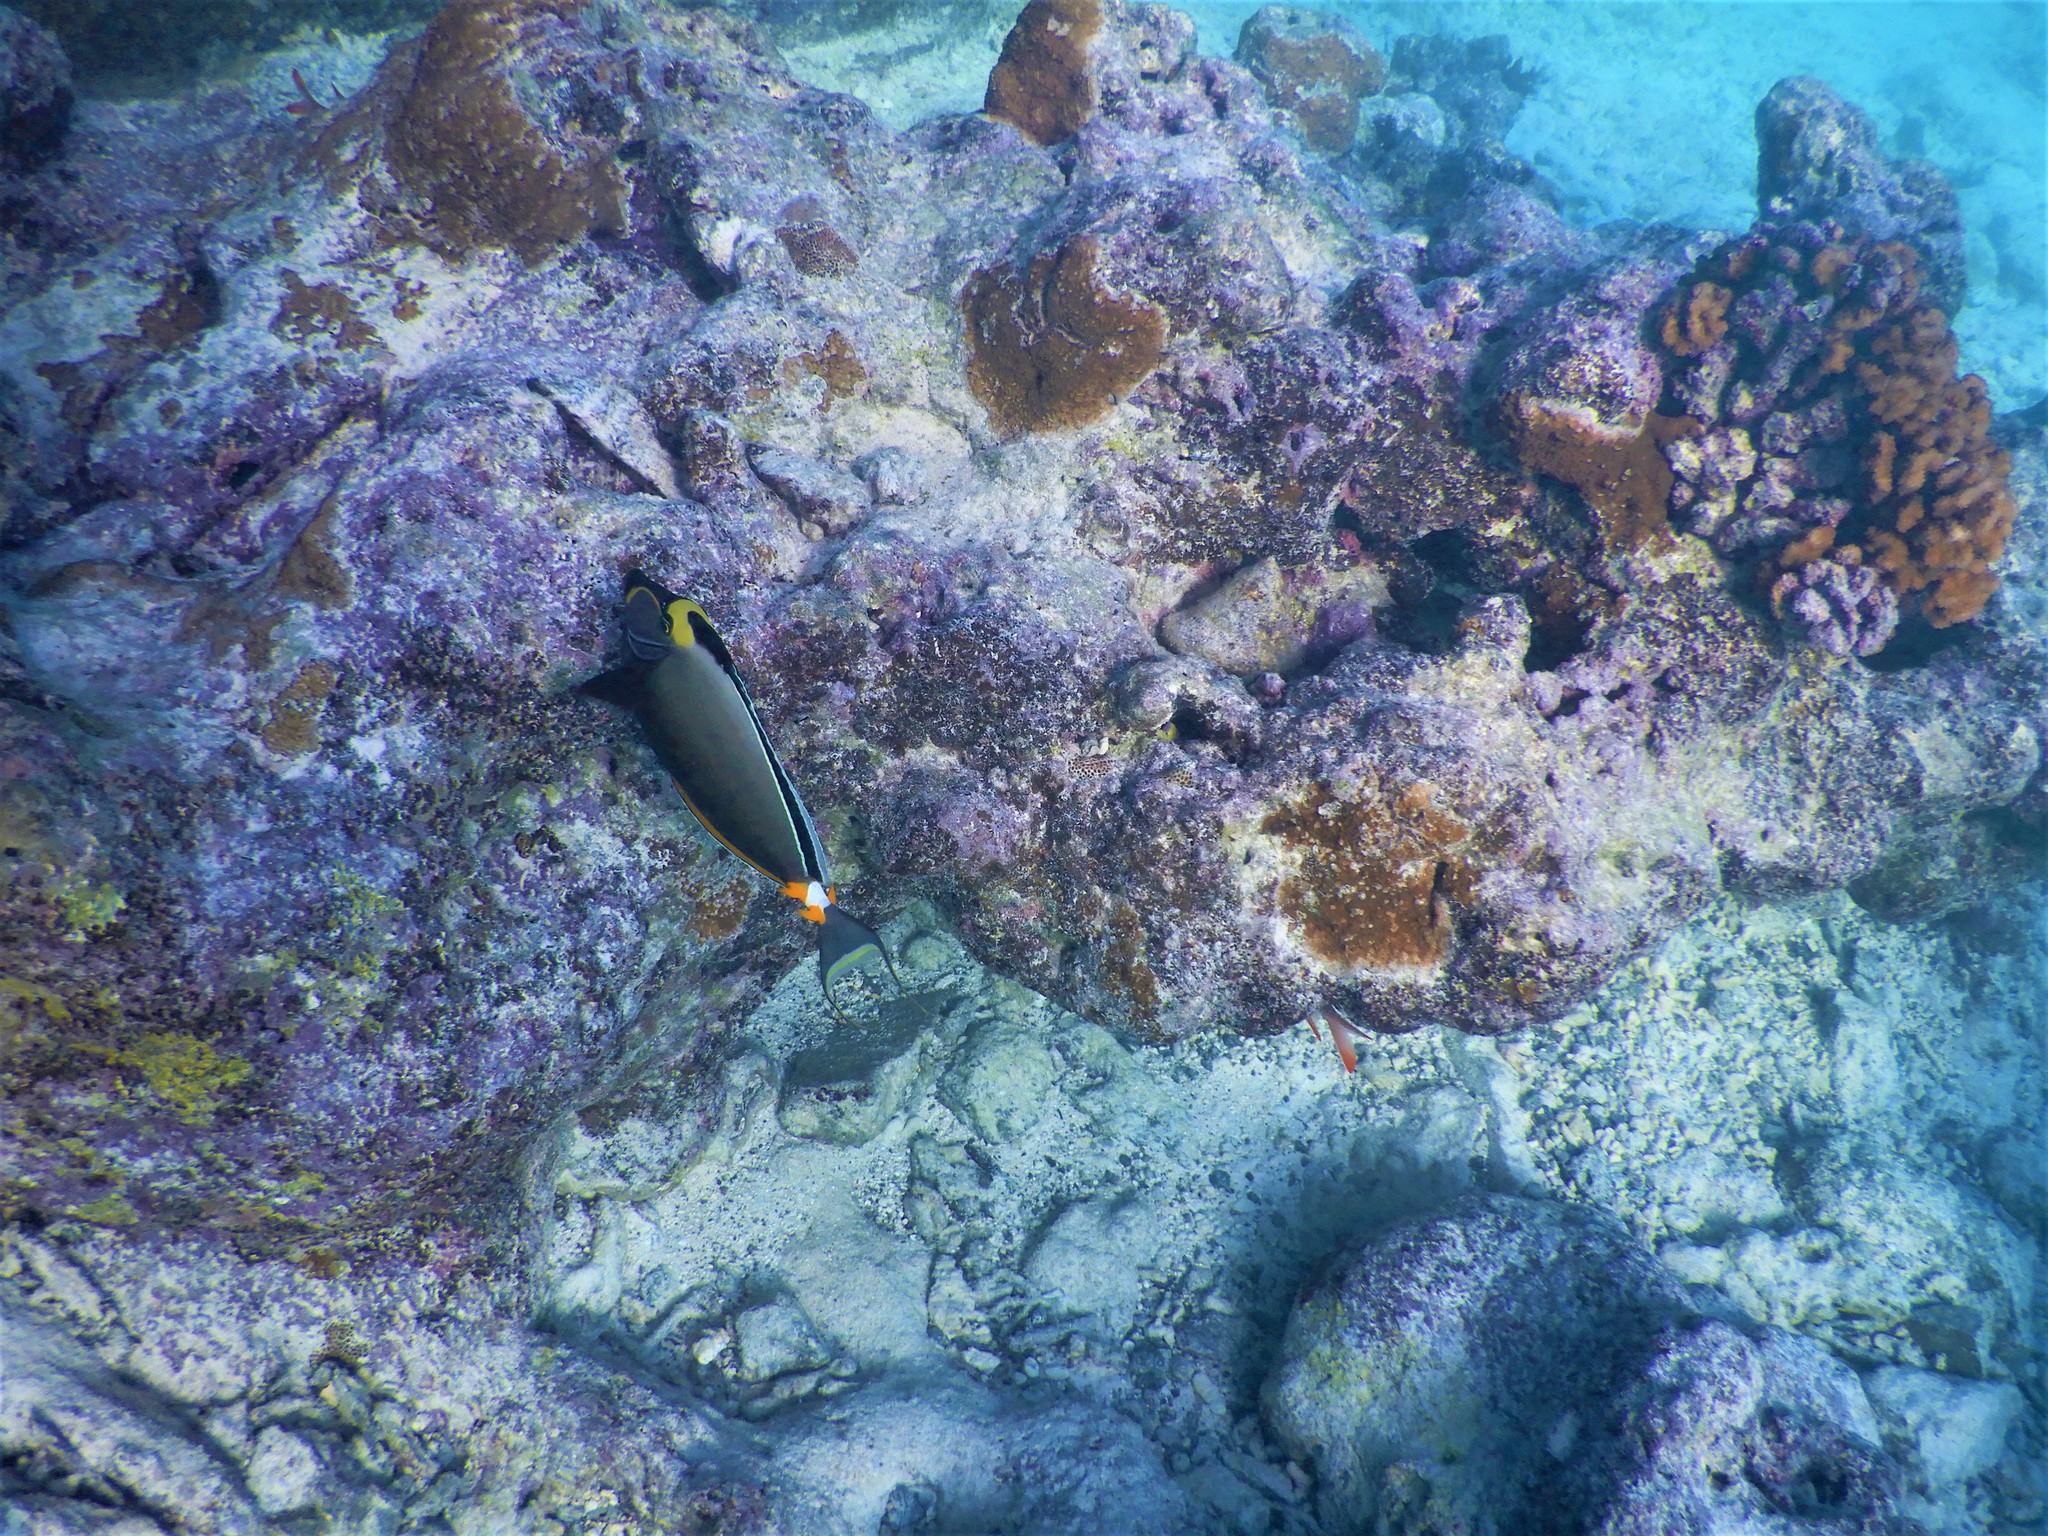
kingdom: Animalia
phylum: Chordata
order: Perciformes
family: Acanthuridae
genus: Naso
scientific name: Naso lituratus
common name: Orangespine unicornfish
